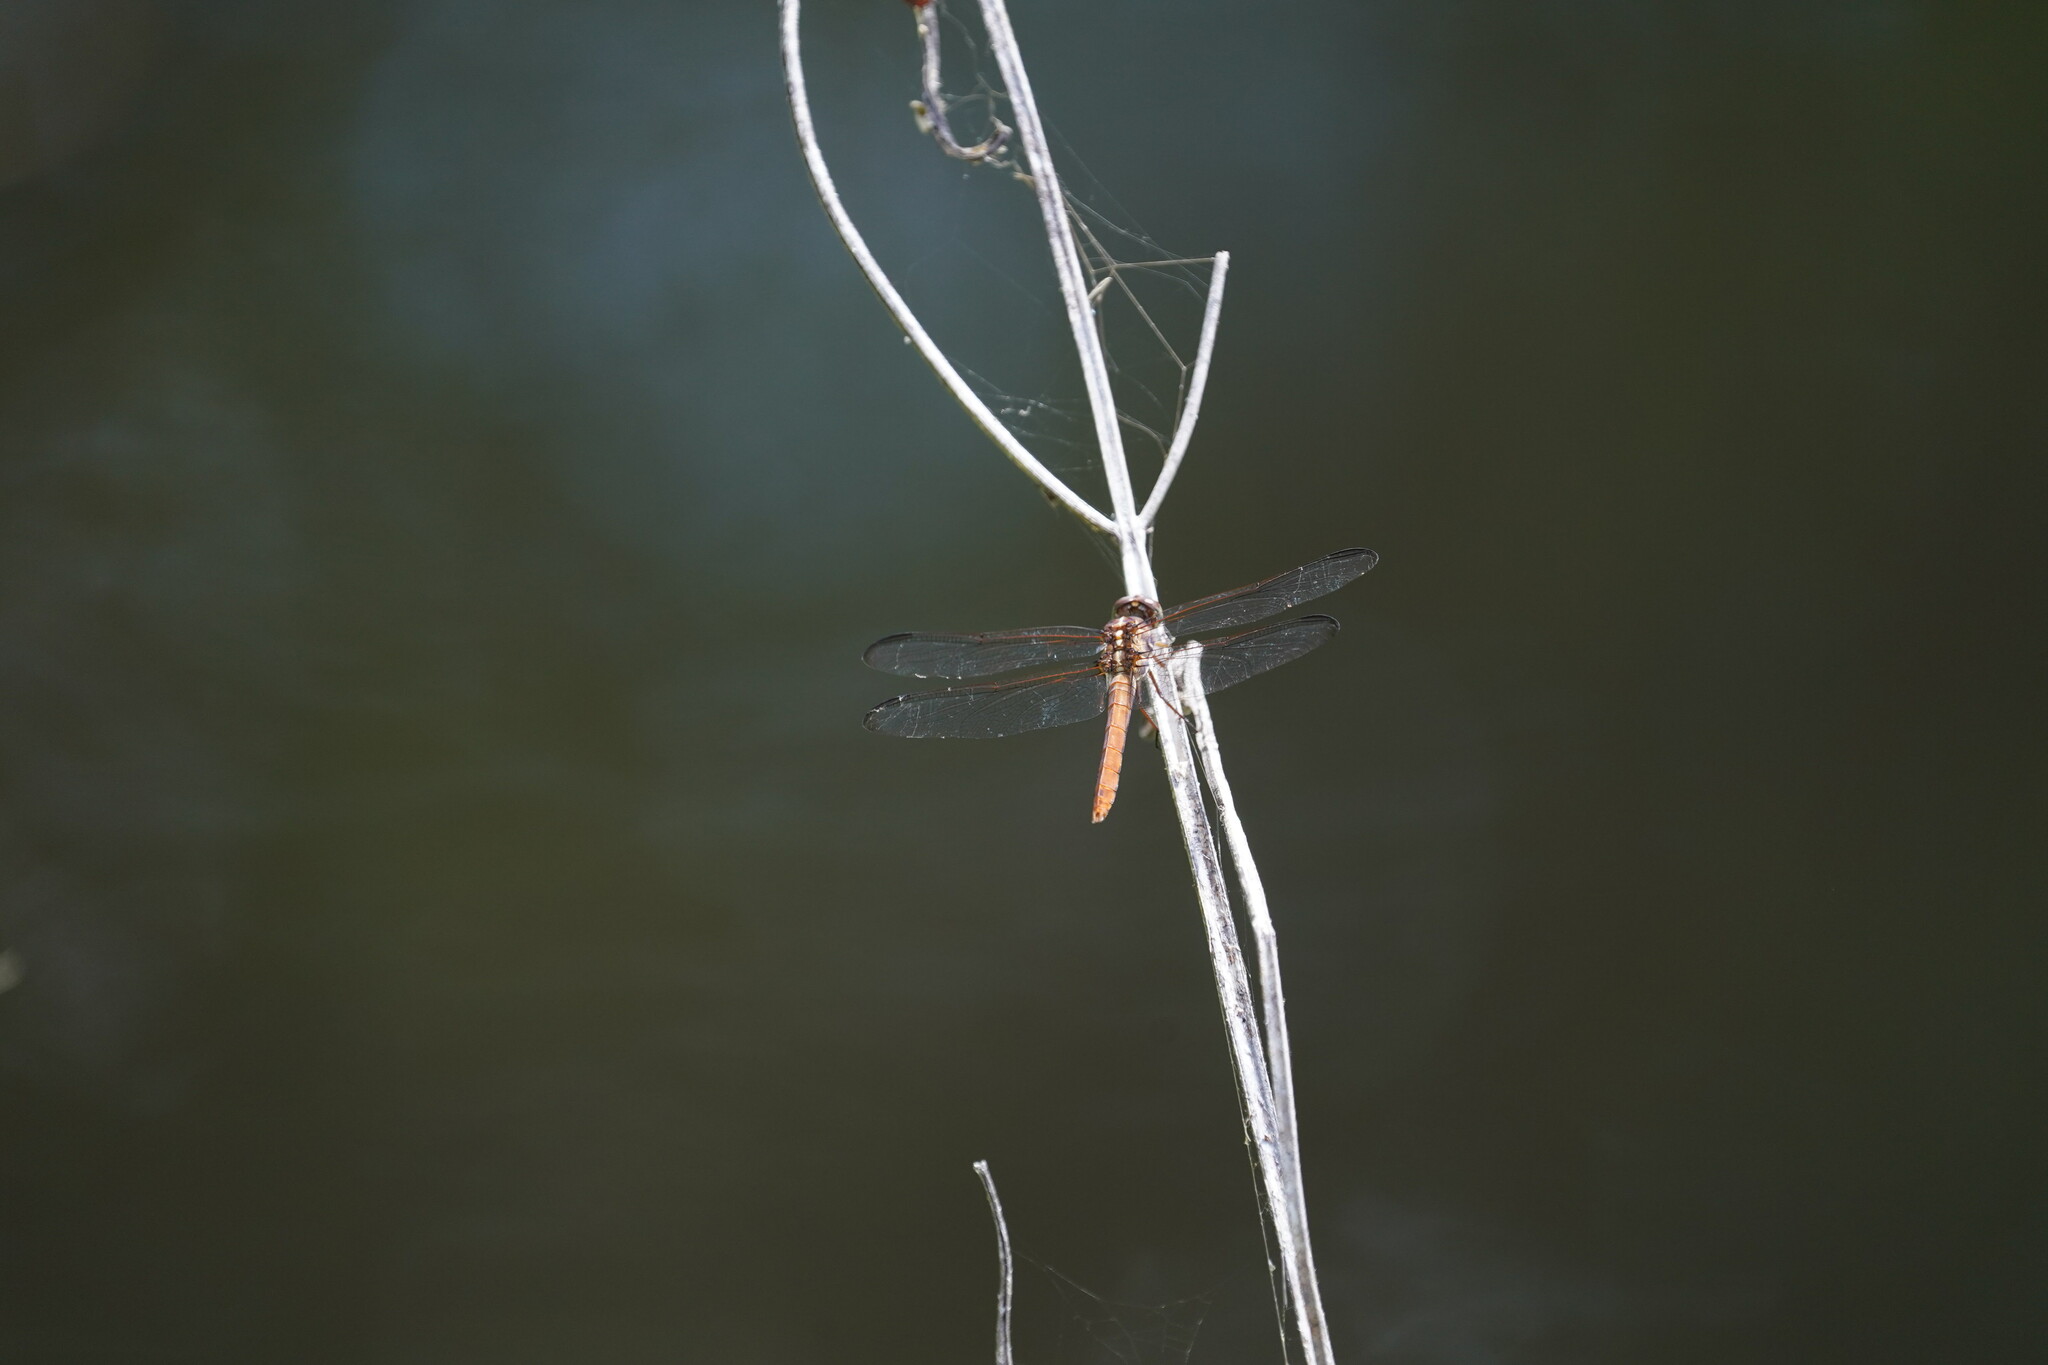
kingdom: Animalia
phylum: Arthropoda
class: Insecta
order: Odonata
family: Libellulidae
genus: Orthemis
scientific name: Orthemis ferruginea
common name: Roseate skimmer
